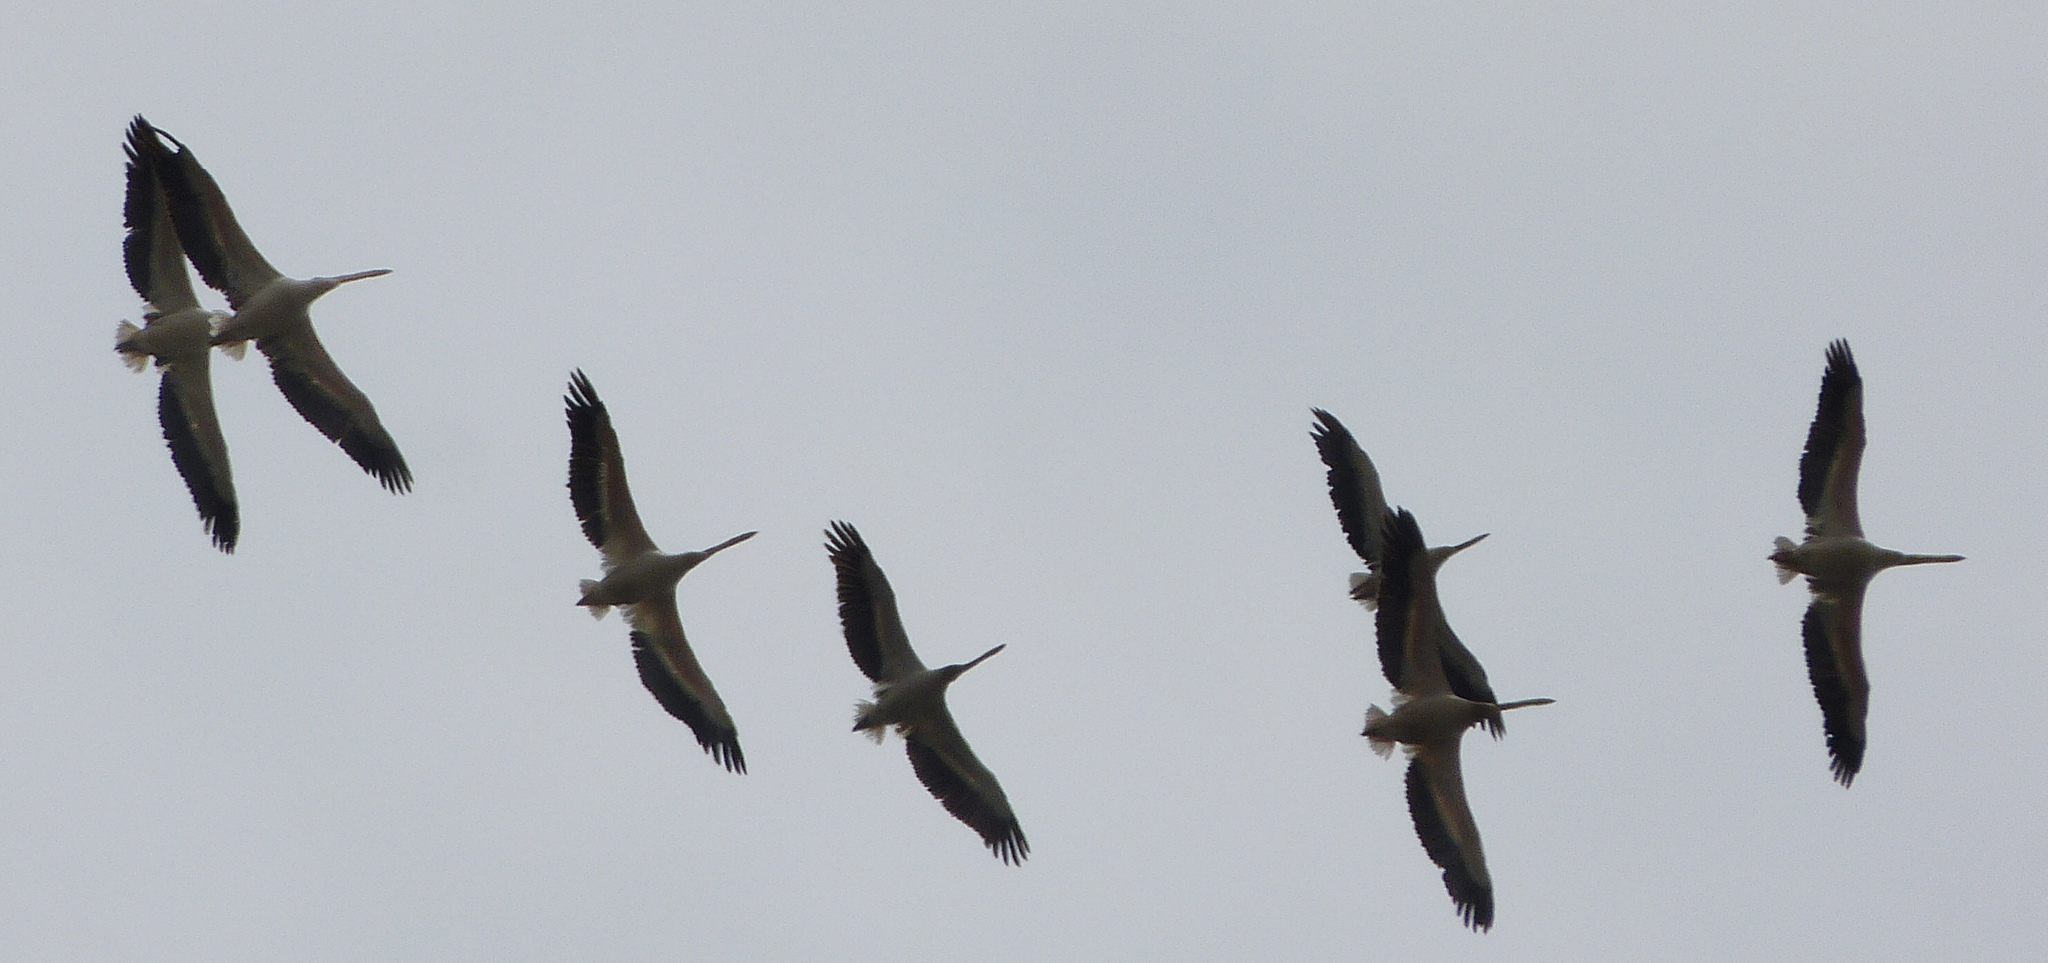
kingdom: Animalia
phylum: Chordata
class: Aves
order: Pelecaniformes
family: Pelecanidae
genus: Pelecanus
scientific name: Pelecanus onocrotalus
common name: Great white pelican
